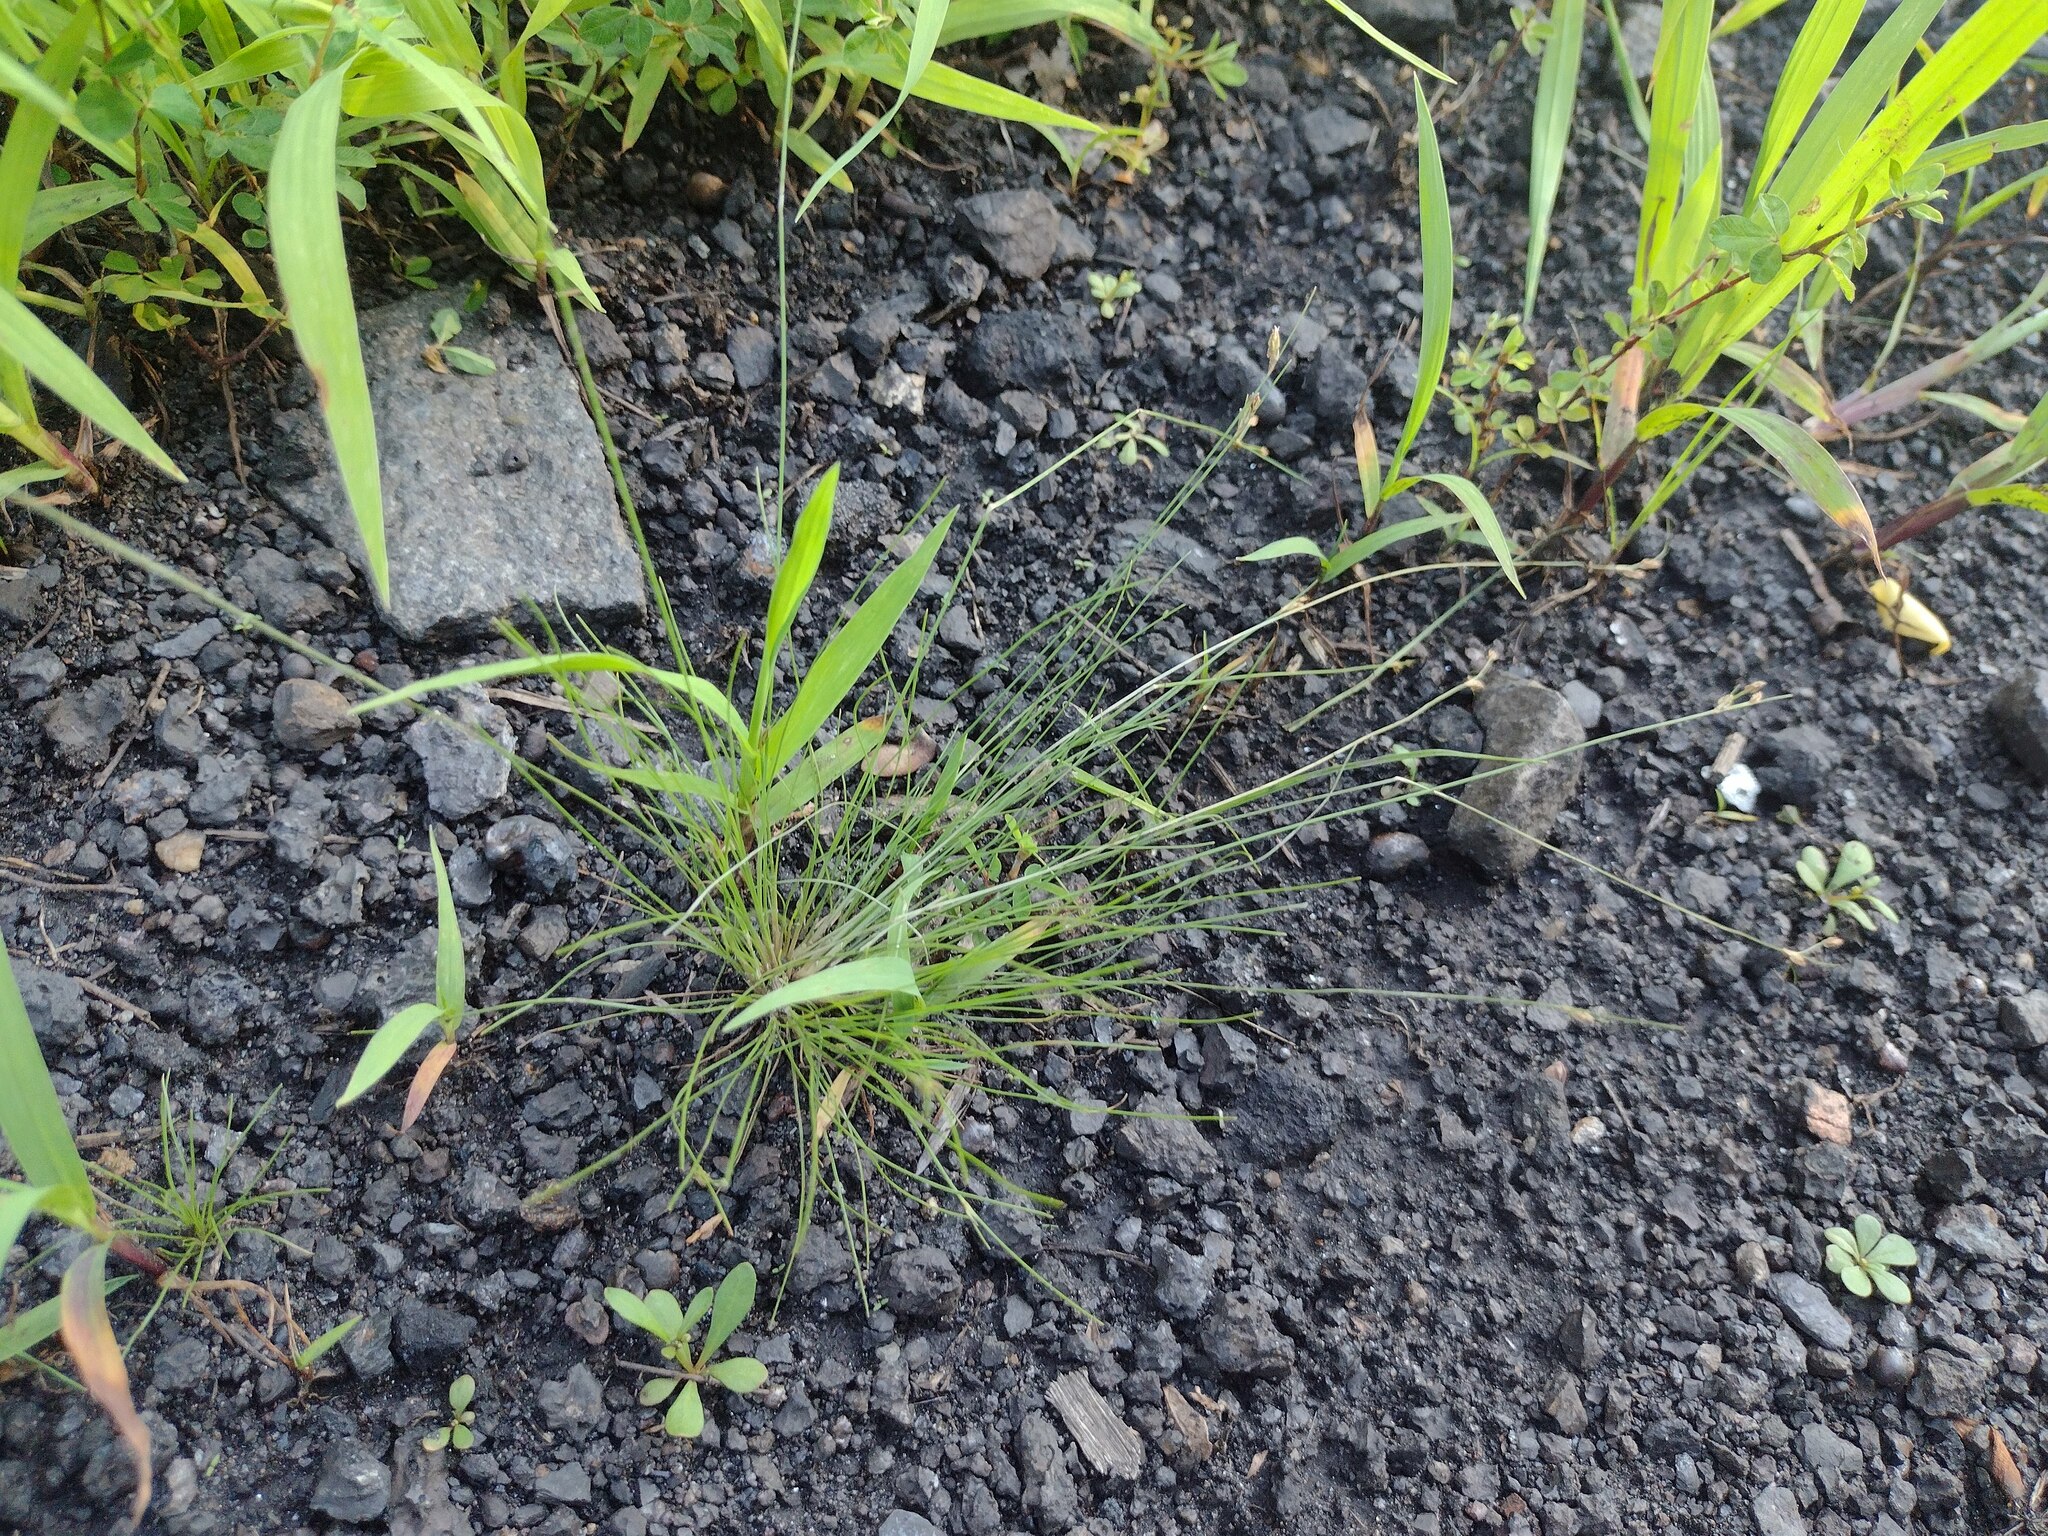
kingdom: Plantae
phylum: Tracheophyta
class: Liliopsida
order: Poales
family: Cyperaceae
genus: Bulbostylis
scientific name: Bulbostylis capillaris
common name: Densetuft hairsedge
